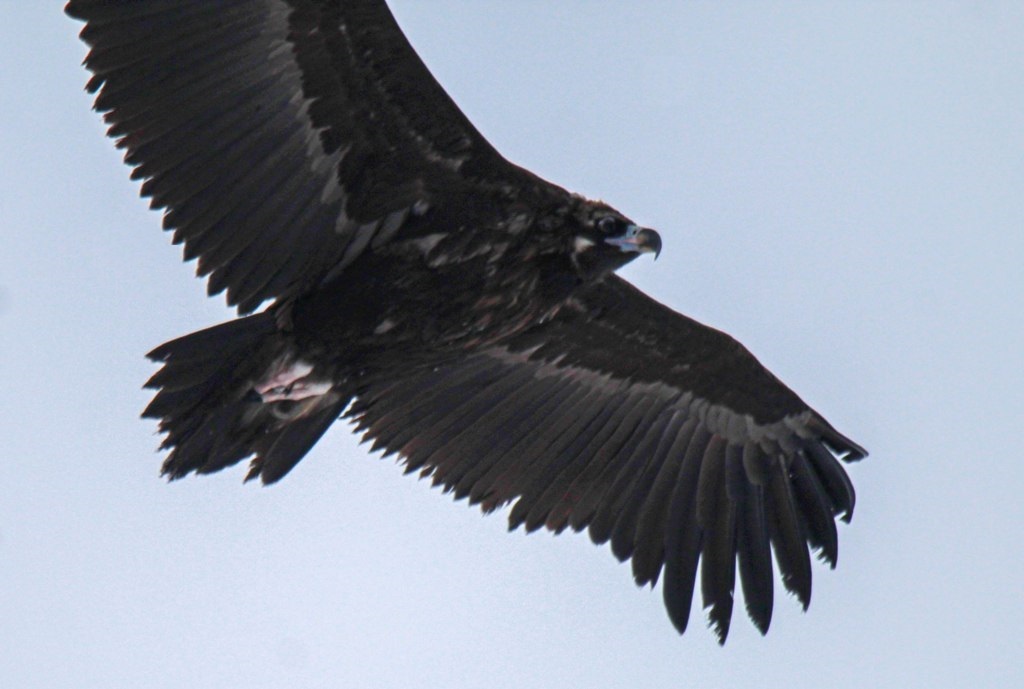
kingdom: Animalia
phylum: Chordata
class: Aves
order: Accipitriformes
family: Accipitridae
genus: Aegypius
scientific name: Aegypius monachus
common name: Cinereous vulture
